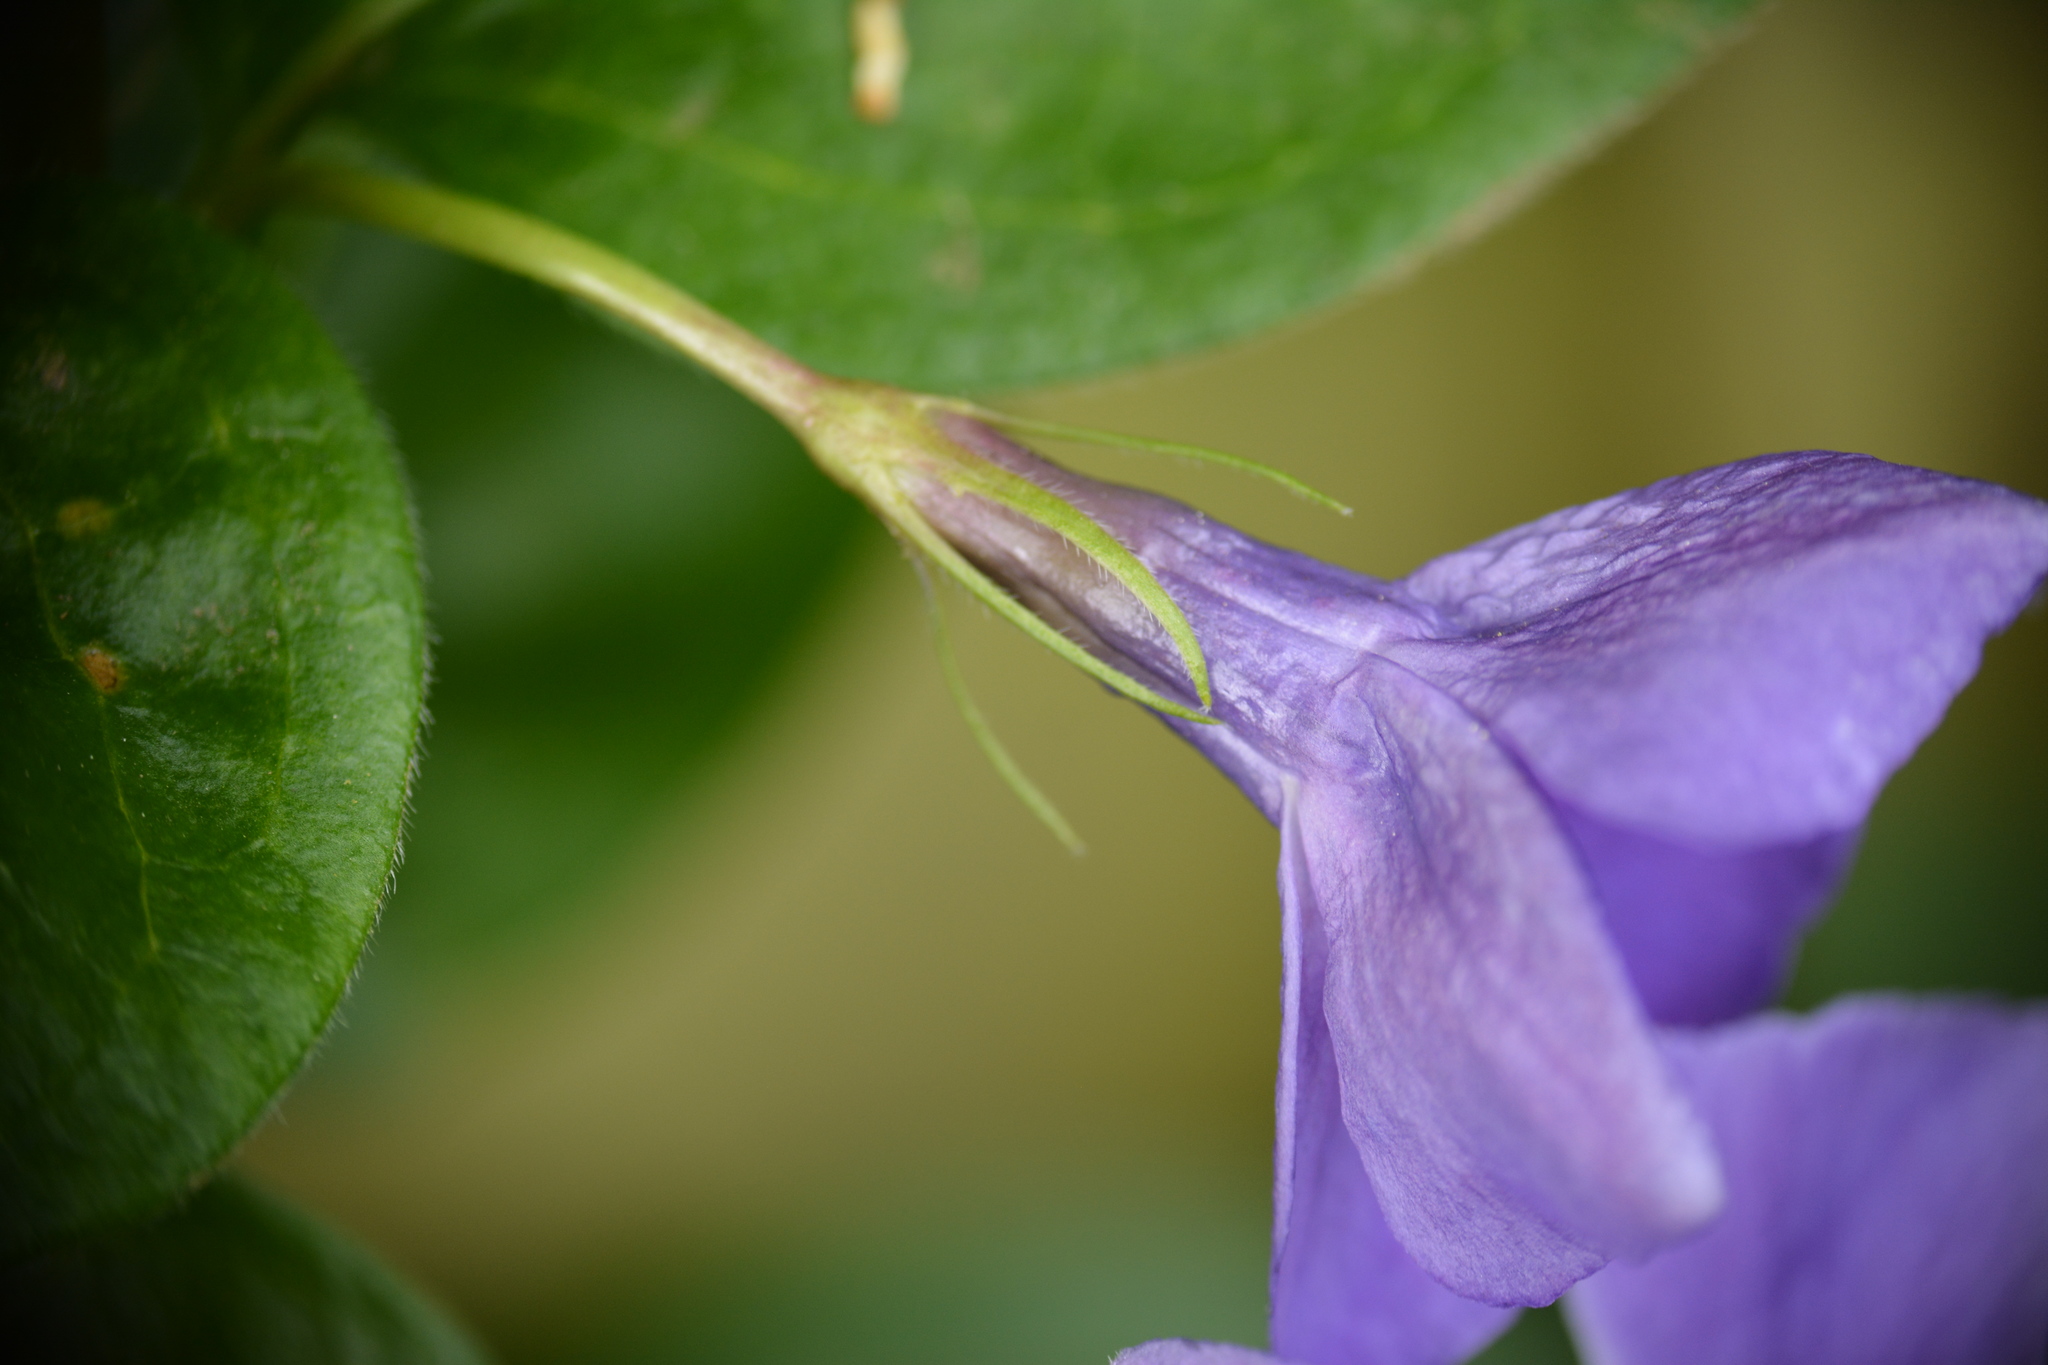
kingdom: Plantae
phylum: Tracheophyta
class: Magnoliopsida
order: Gentianales
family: Apocynaceae
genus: Vinca
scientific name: Vinca major
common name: Greater periwinkle
